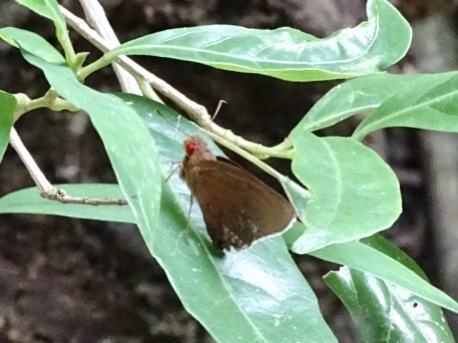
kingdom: Animalia
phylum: Arthropoda
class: Insecta
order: Lepidoptera
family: Hesperiidae
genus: Matapa
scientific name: Matapa aria
